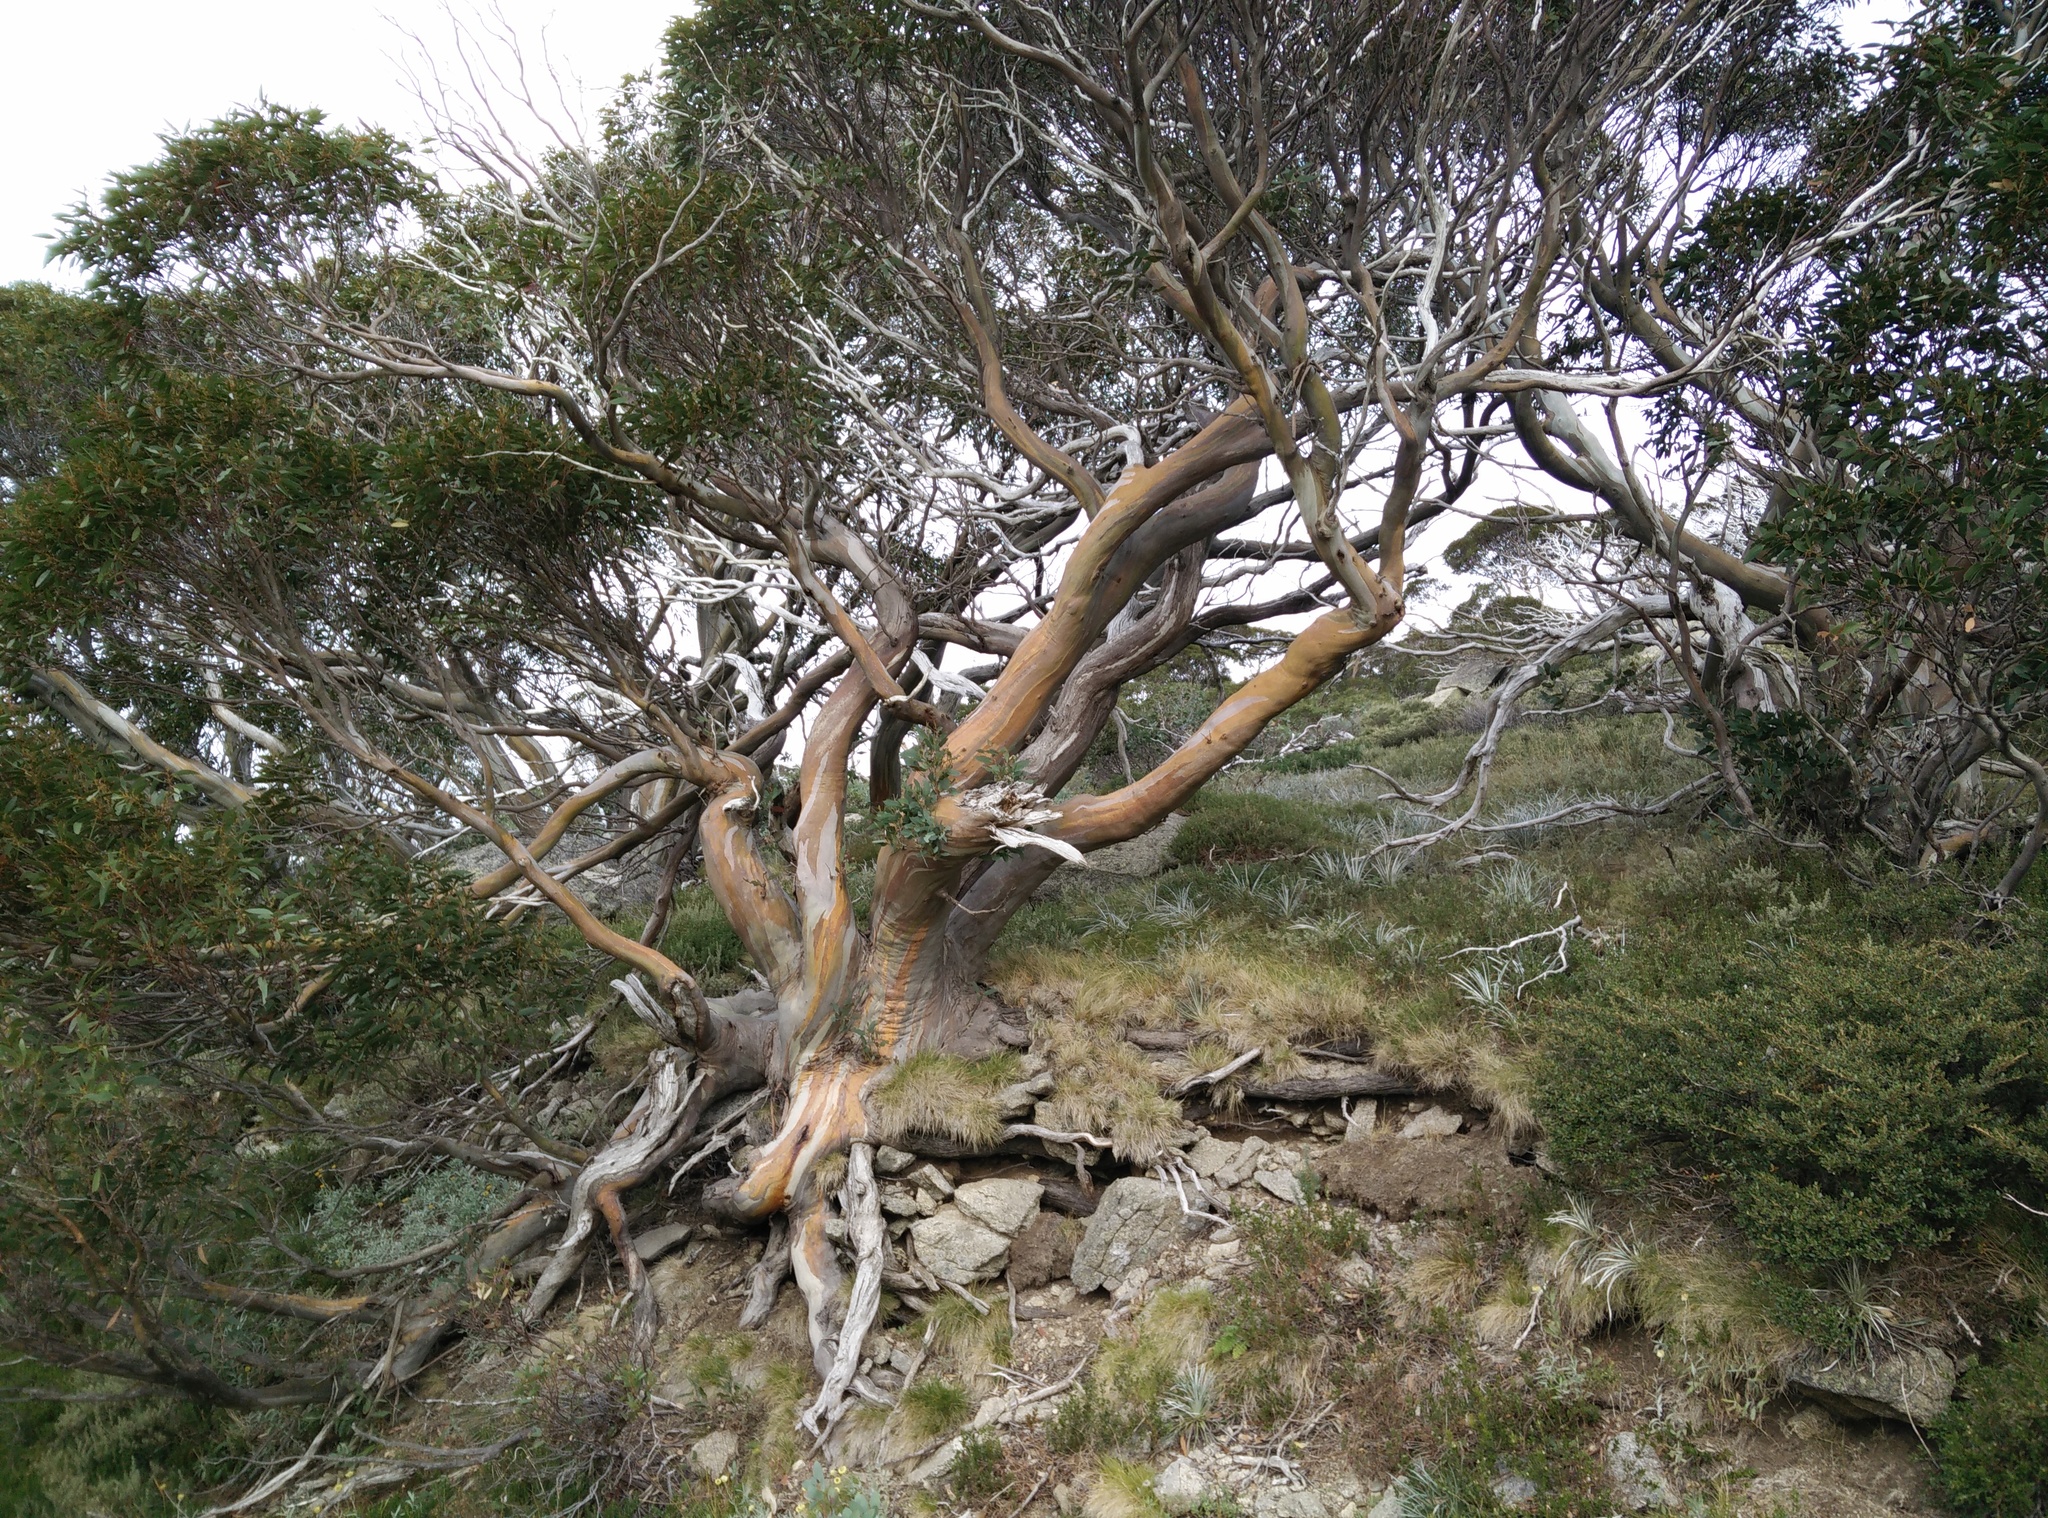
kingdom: Plantae
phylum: Tracheophyta
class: Magnoliopsida
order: Myrtales
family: Myrtaceae
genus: Eucalyptus
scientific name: Eucalyptus pauciflora
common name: Snow gum
